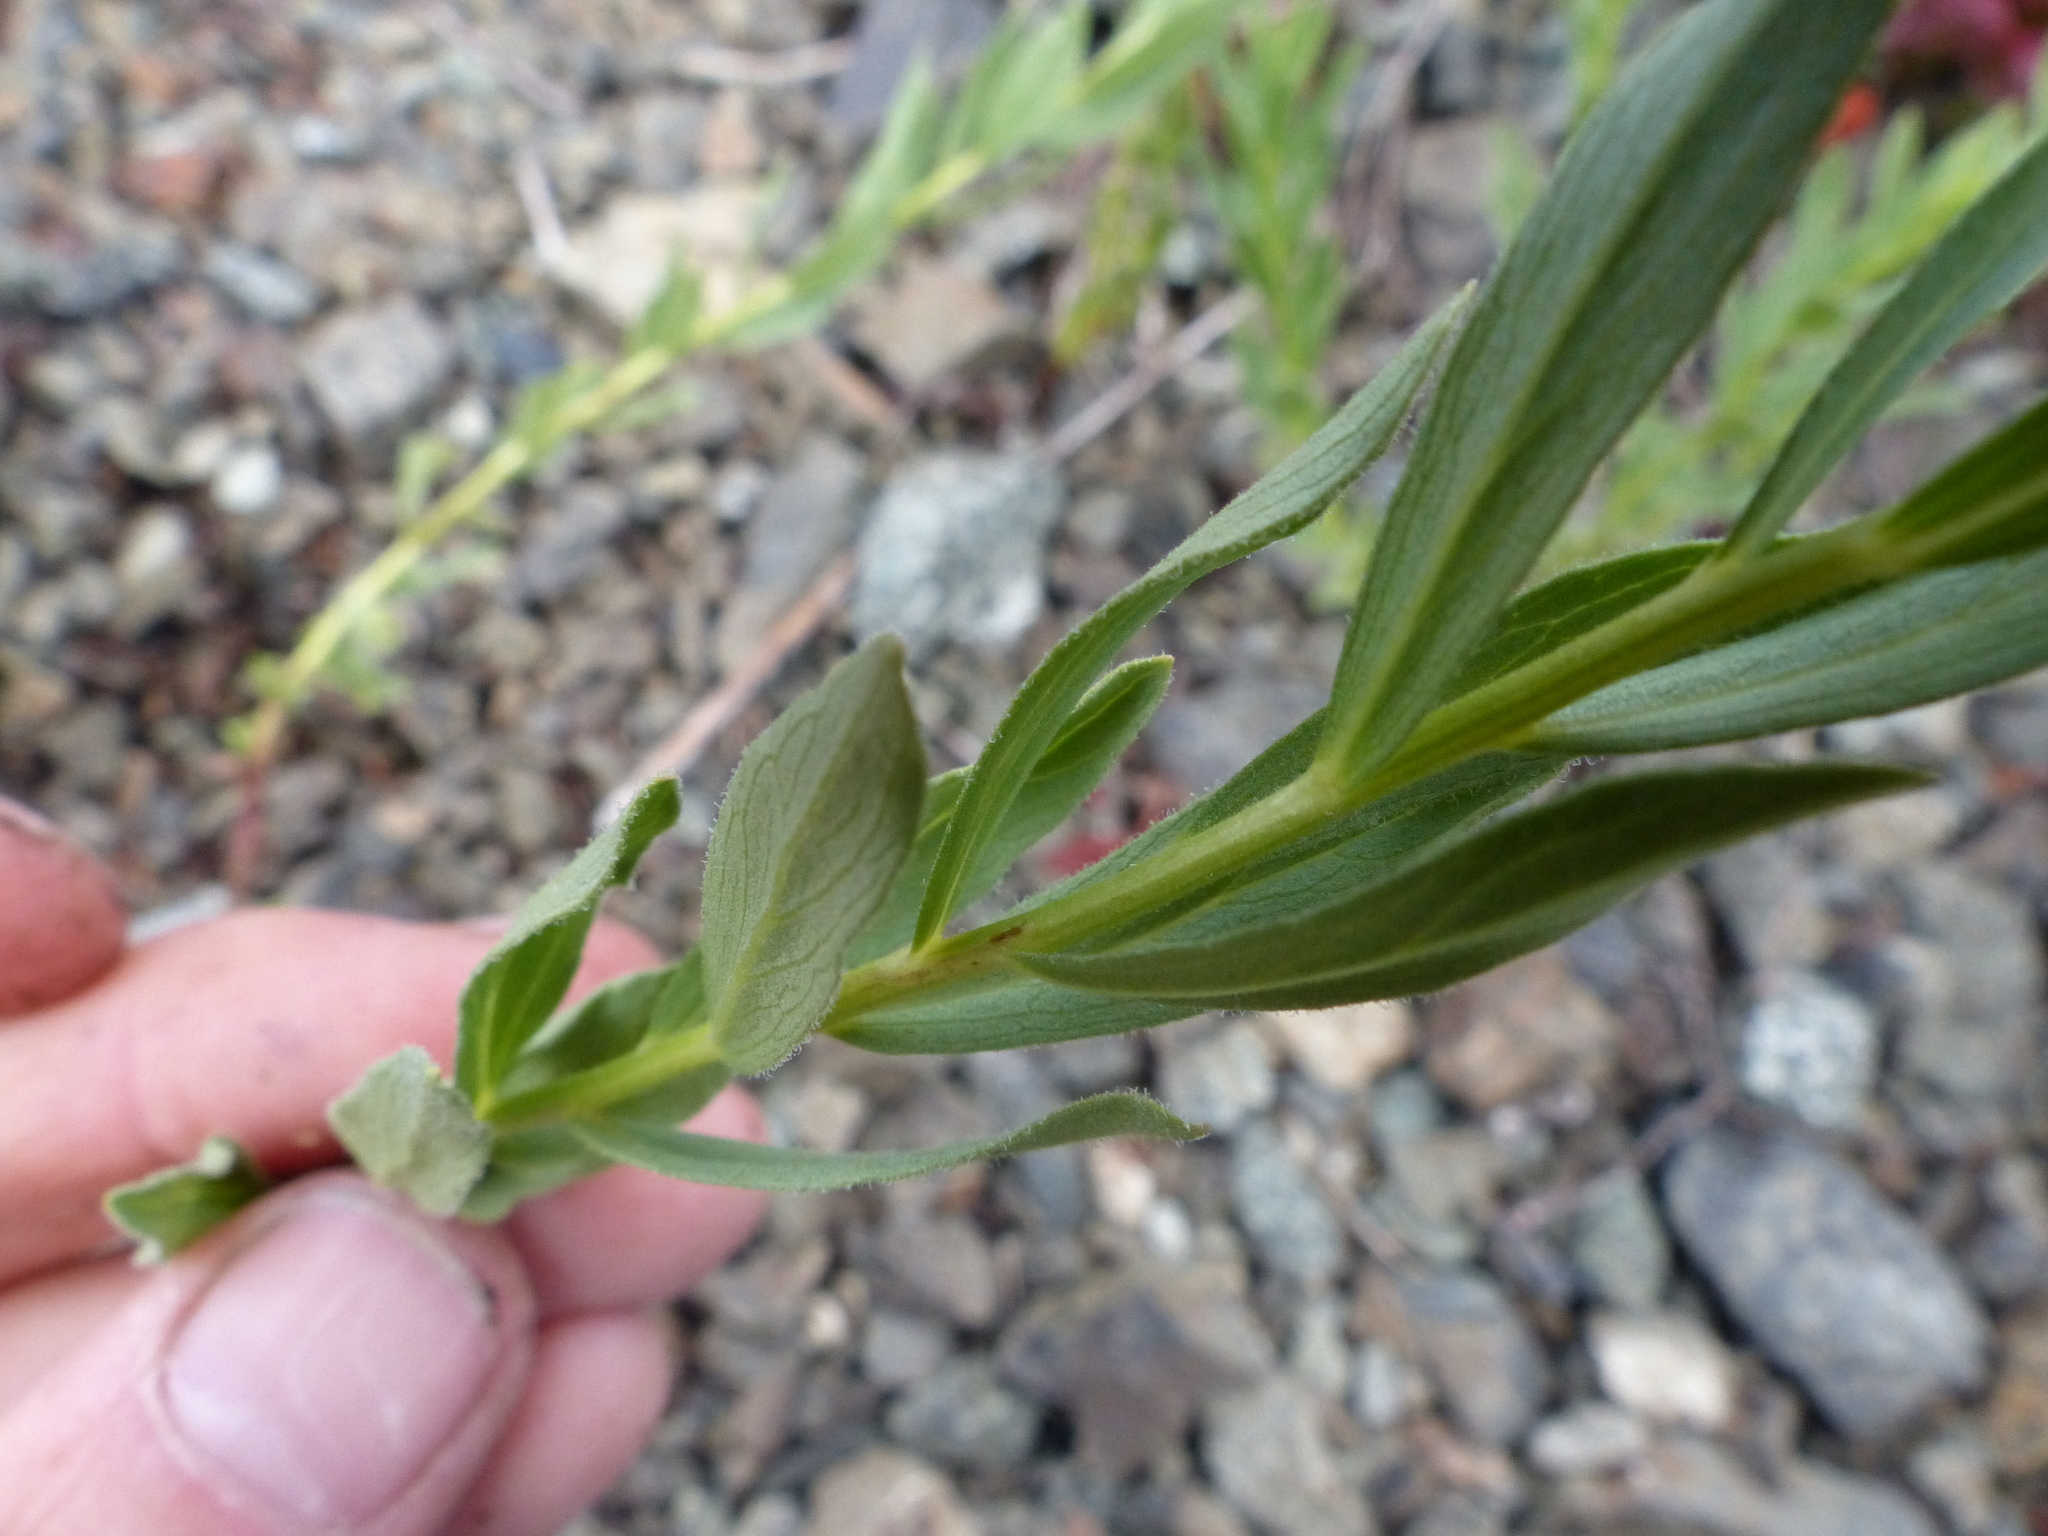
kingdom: Plantae
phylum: Tracheophyta
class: Magnoliopsida
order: Asterales
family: Asteraceae
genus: Eucephalus
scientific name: Eucephalus paucicapitatus
